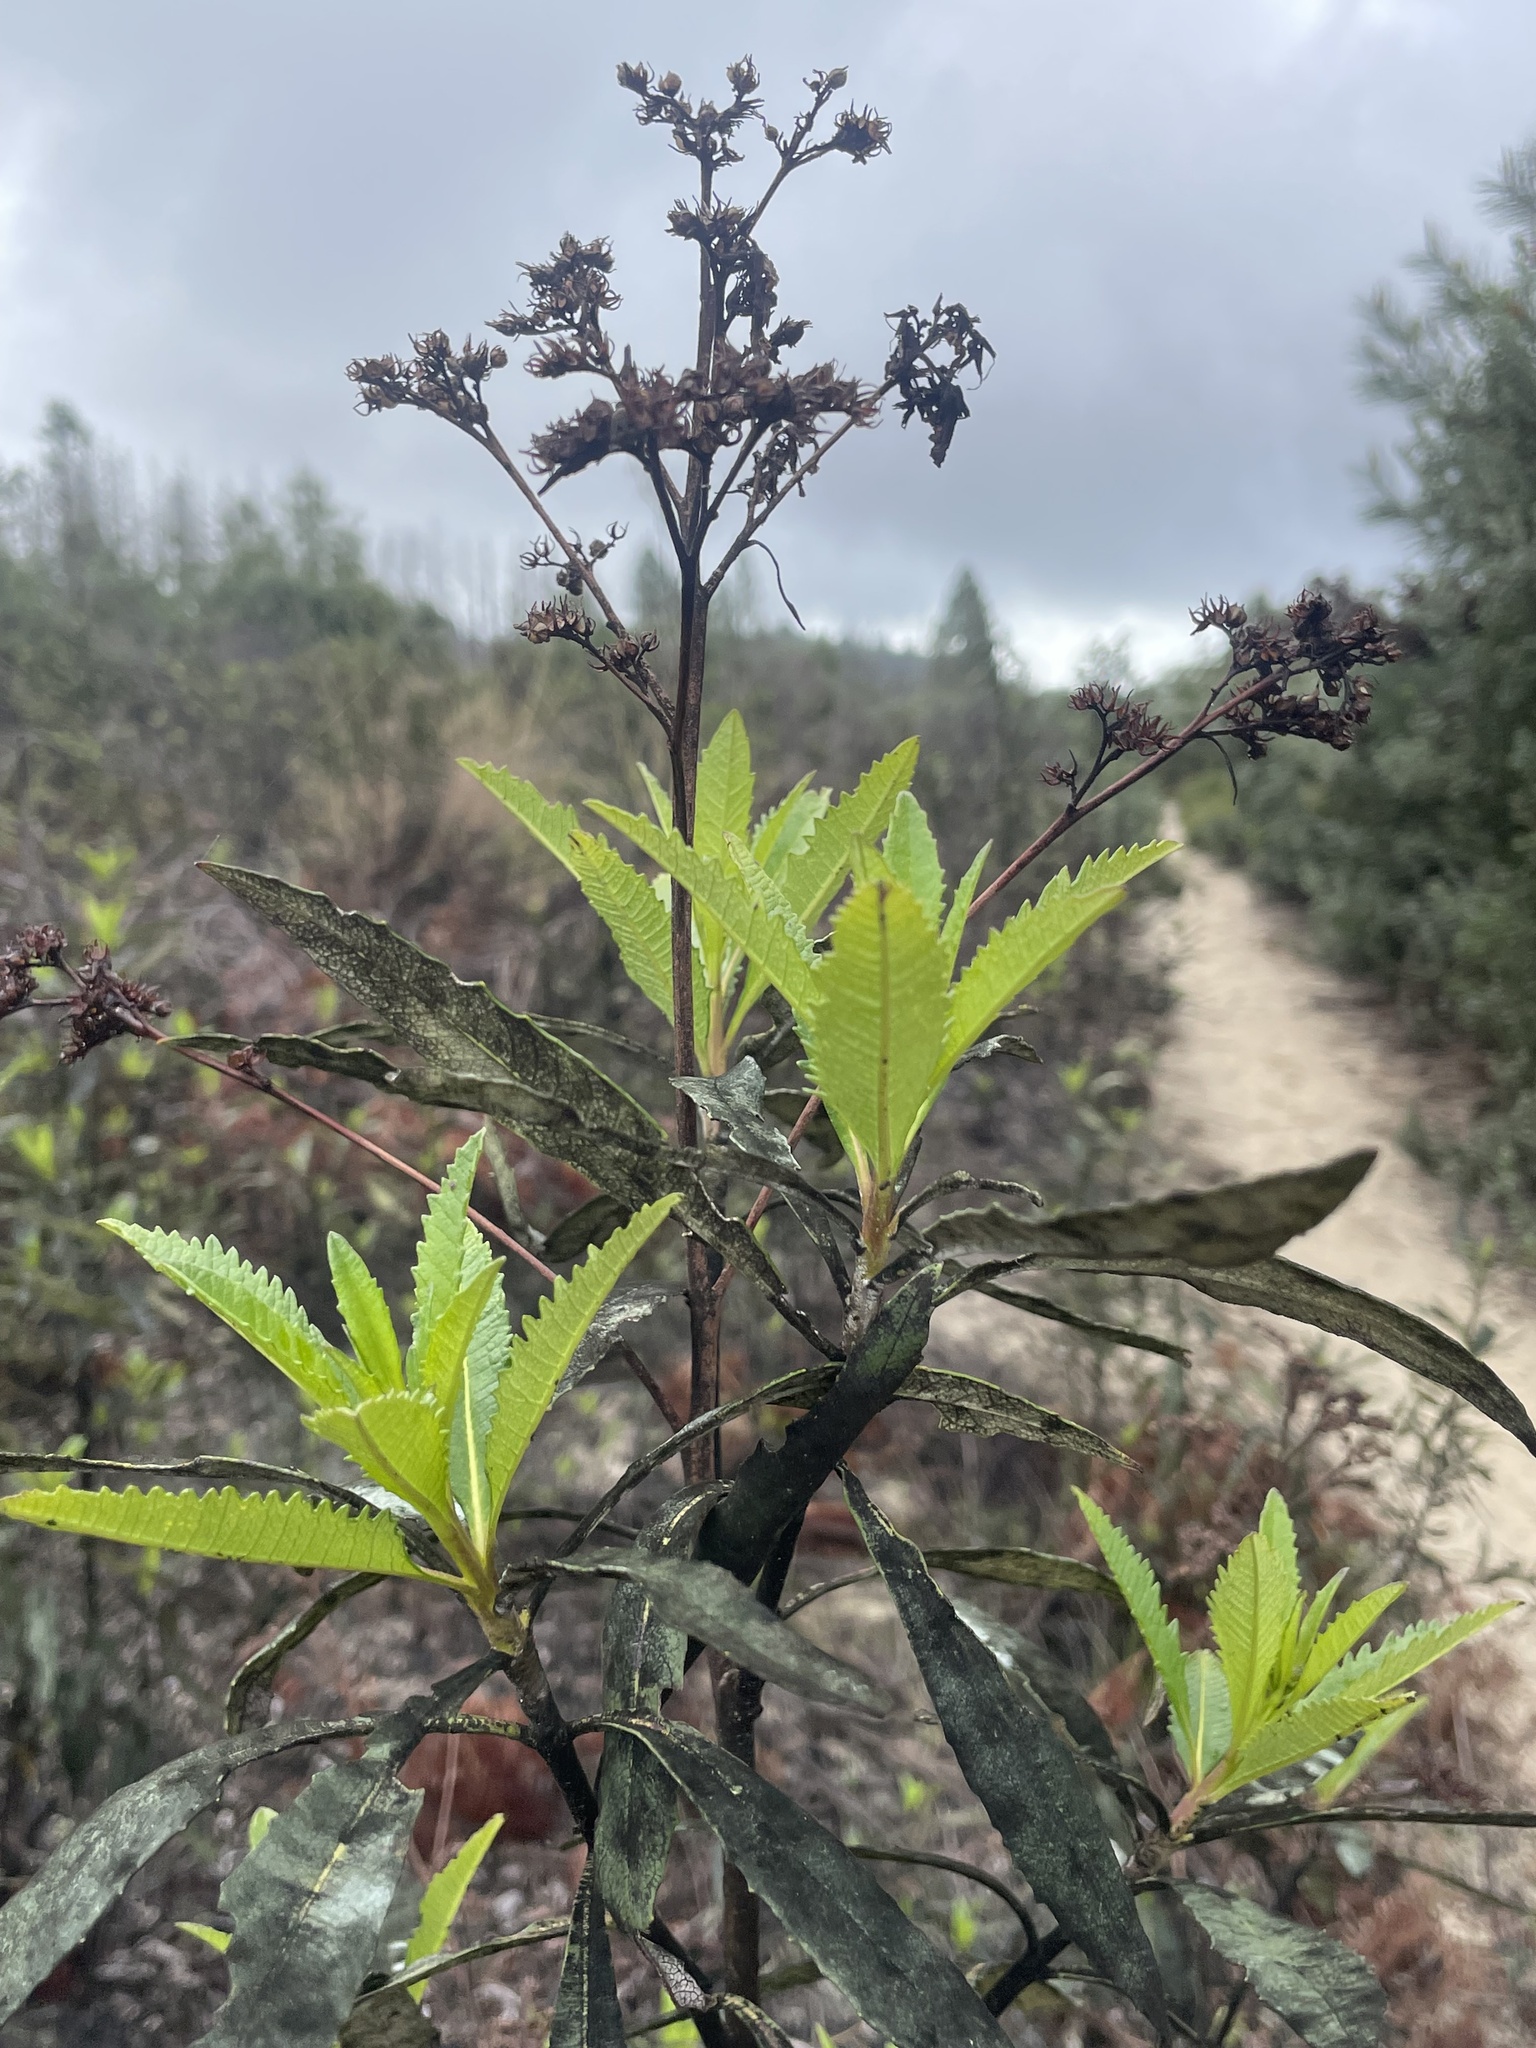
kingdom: Plantae
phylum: Tracheophyta
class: Magnoliopsida
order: Boraginales
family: Namaceae
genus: Eriodictyon
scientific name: Eriodictyon californicum
